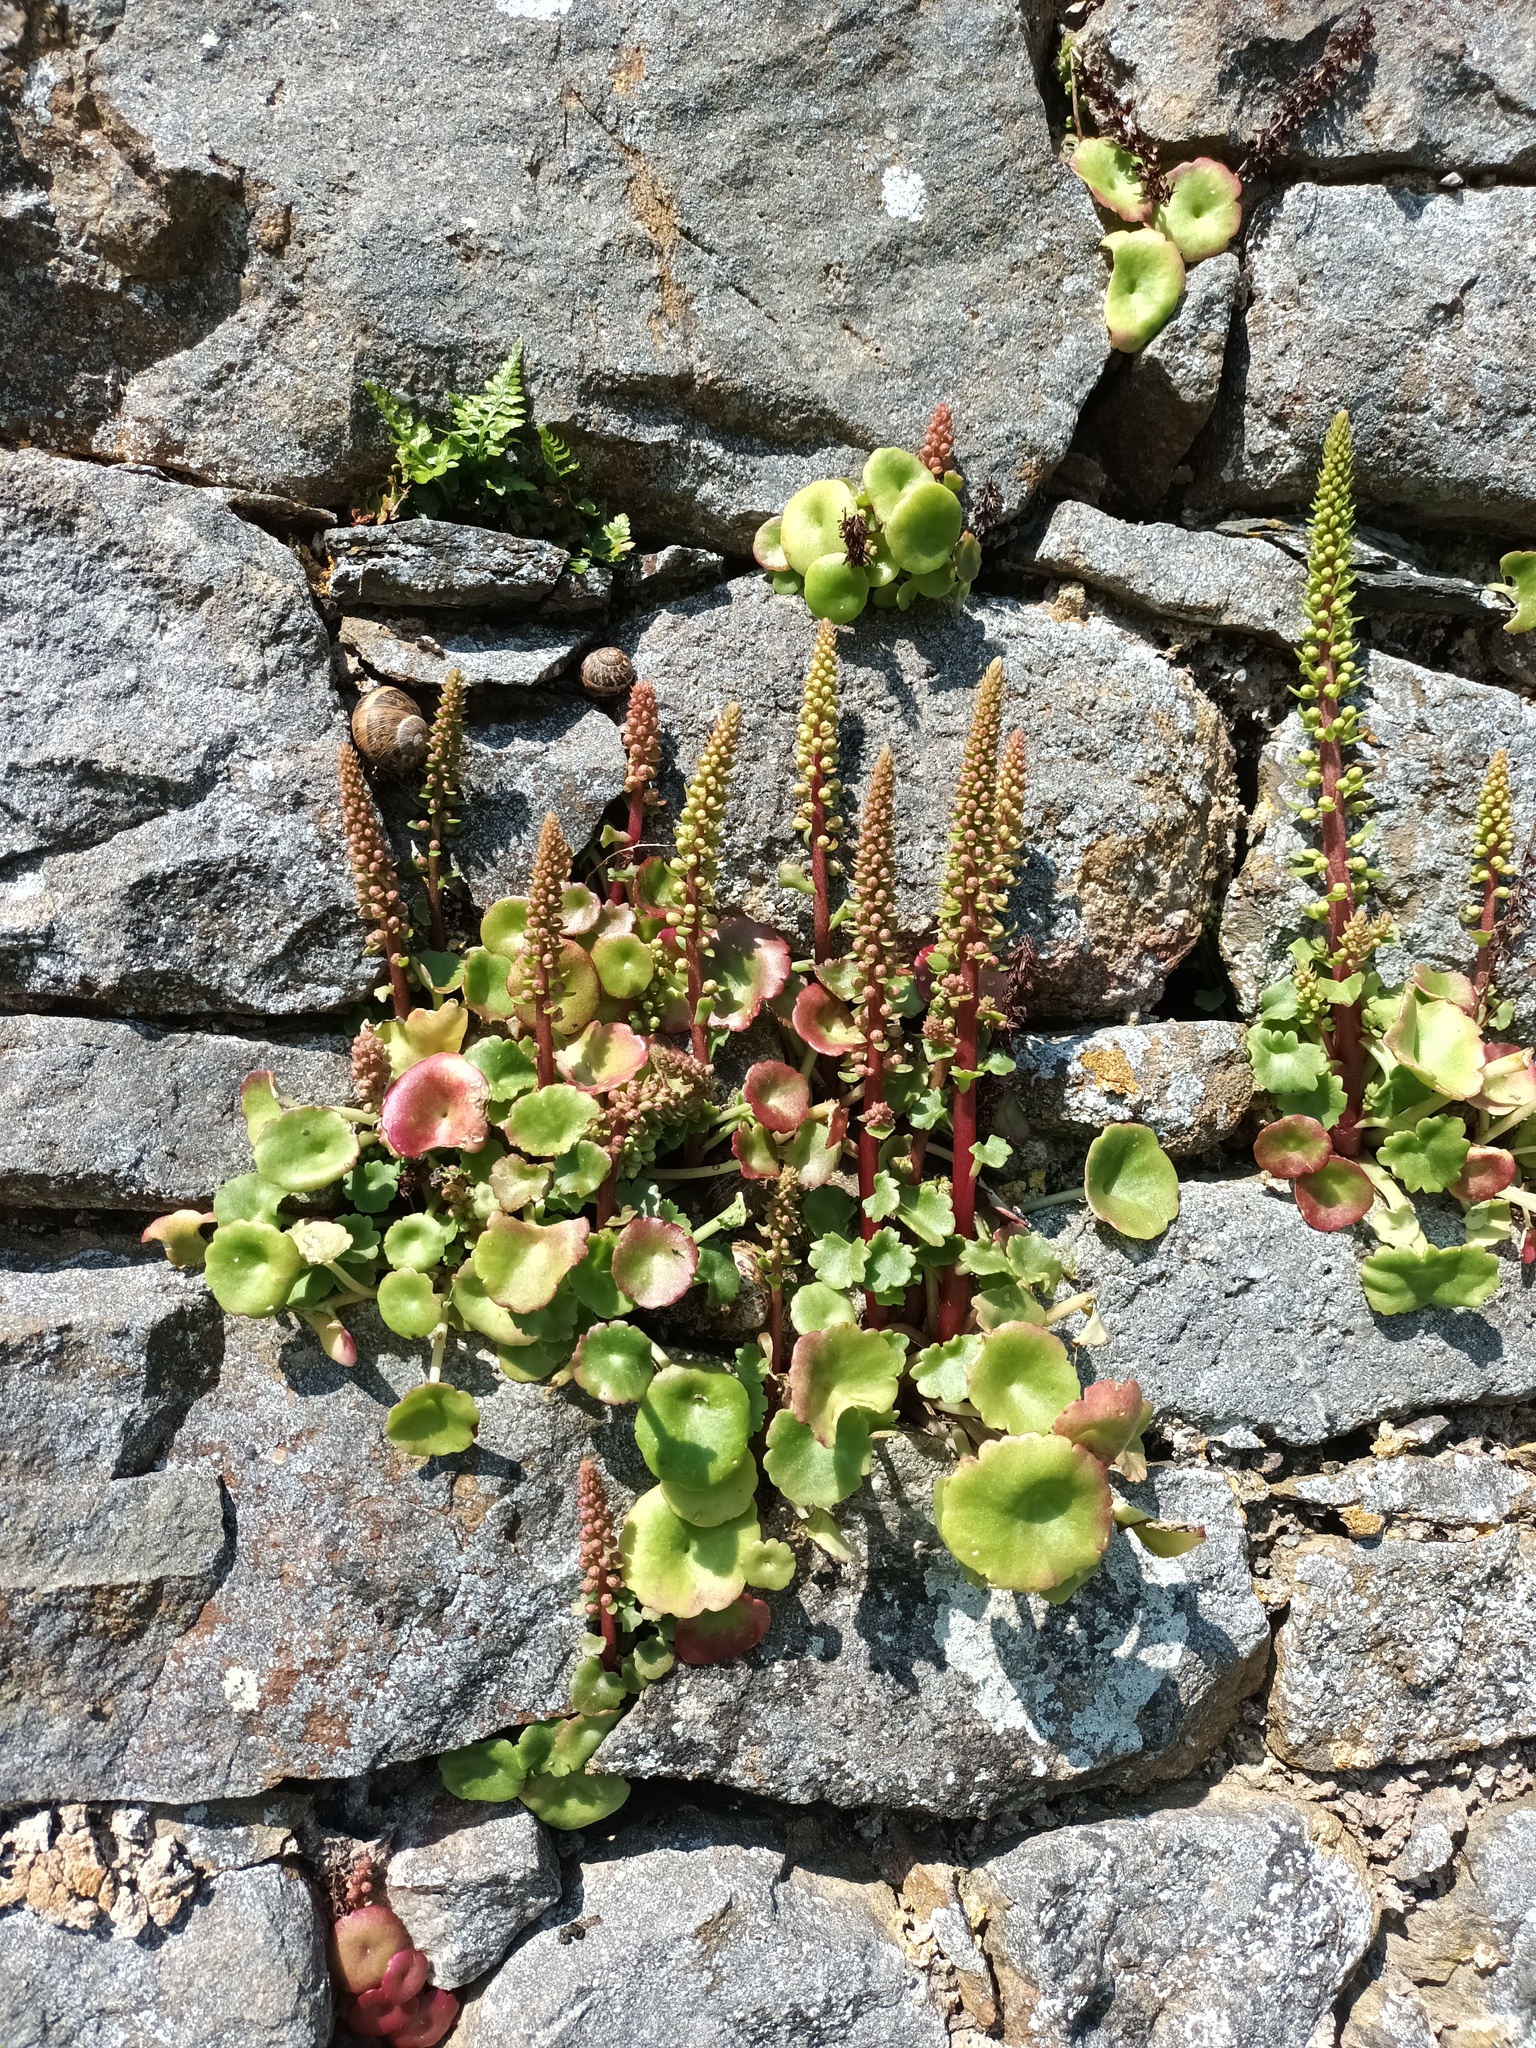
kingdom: Plantae
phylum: Tracheophyta
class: Magnoliopsida
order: Saxifragales
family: Crassulaceae
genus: Umbilicus
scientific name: Umbilicus rupestris
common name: Navelwort
